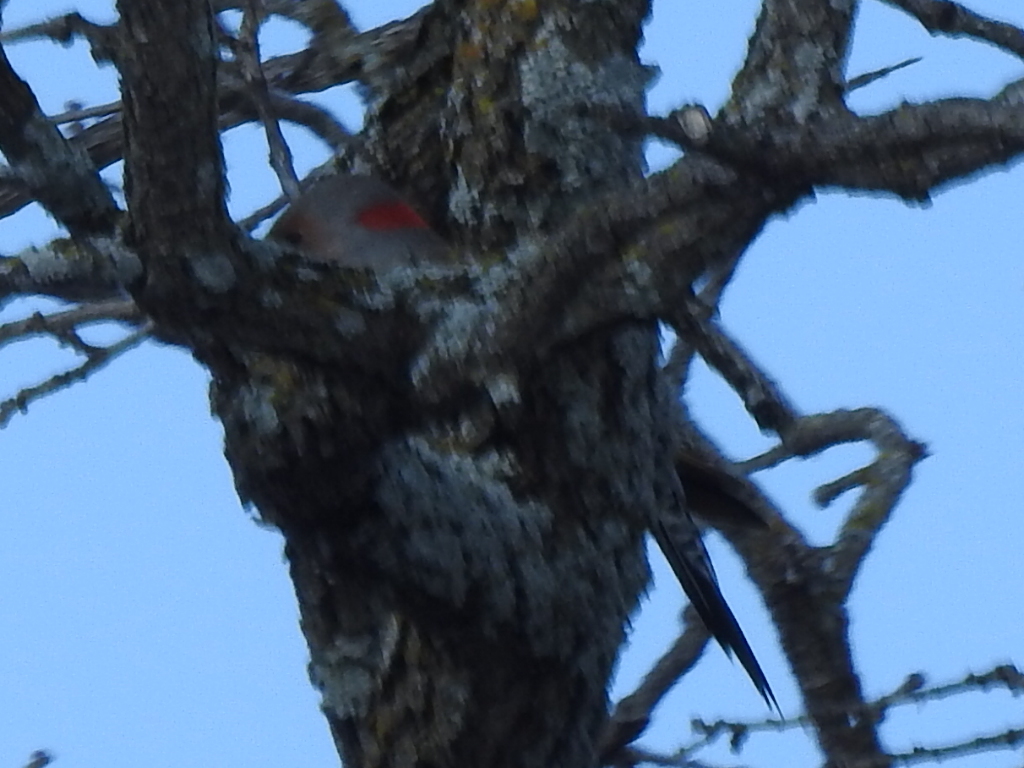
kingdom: Animalia
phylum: Chordata
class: Aves
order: Piciformes
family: Picidae
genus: Colaptes
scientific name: Colaptes auratus
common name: Northern flicker
